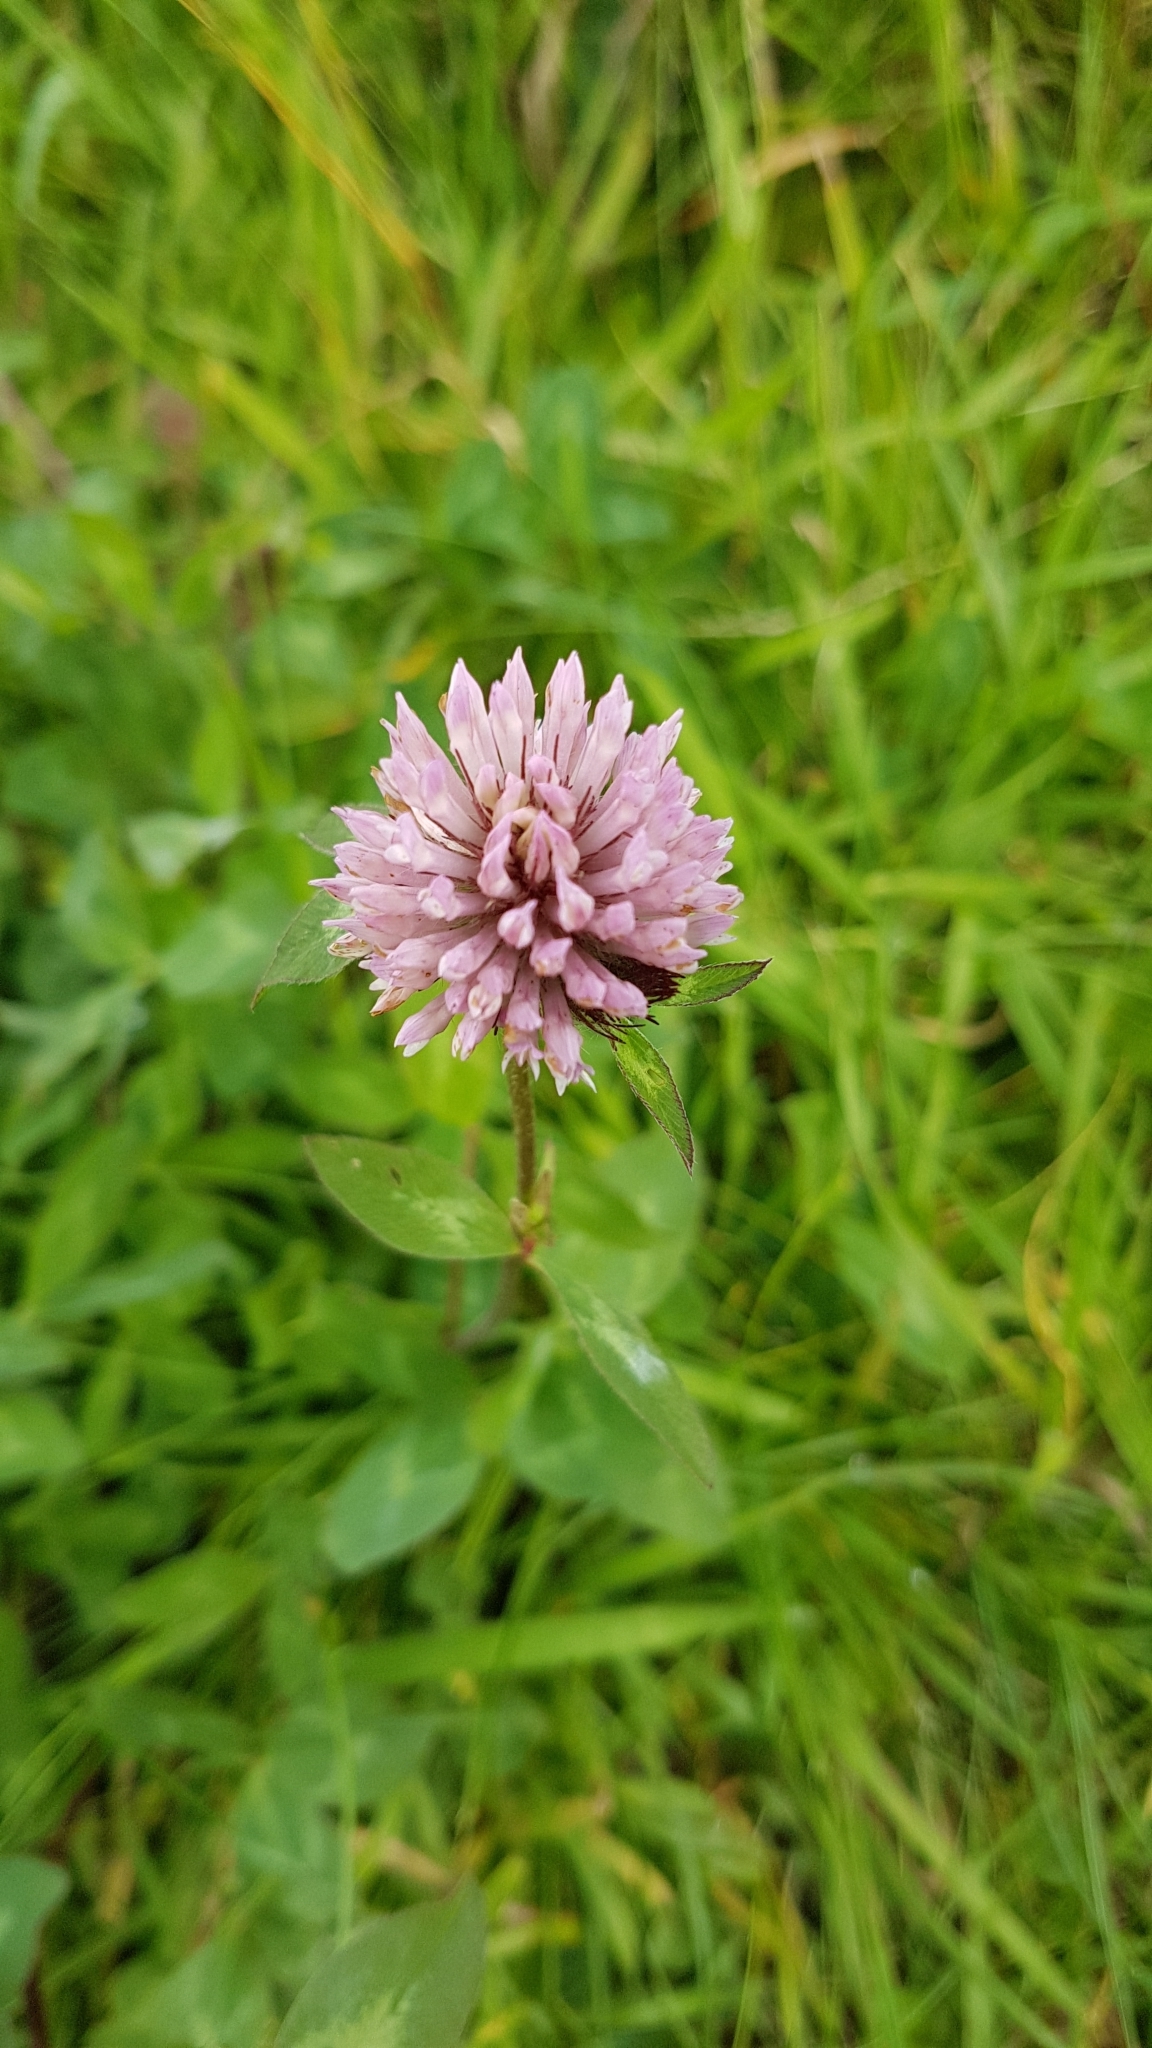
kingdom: Plantae
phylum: Tracheophyta
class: Magnoliopsida
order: Fabales
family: Fabaceae
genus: Trifolium
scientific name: Trifolium pratense
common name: Red clover
